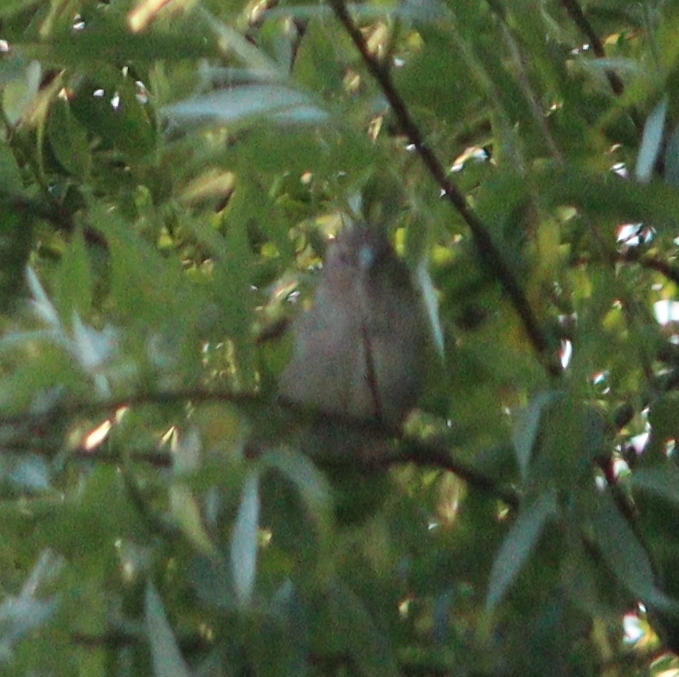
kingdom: Animalia
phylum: Chordata
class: Aves
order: Passeriformes
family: Passeridae
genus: Passer
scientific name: Passer domesticus
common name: House sparrow
